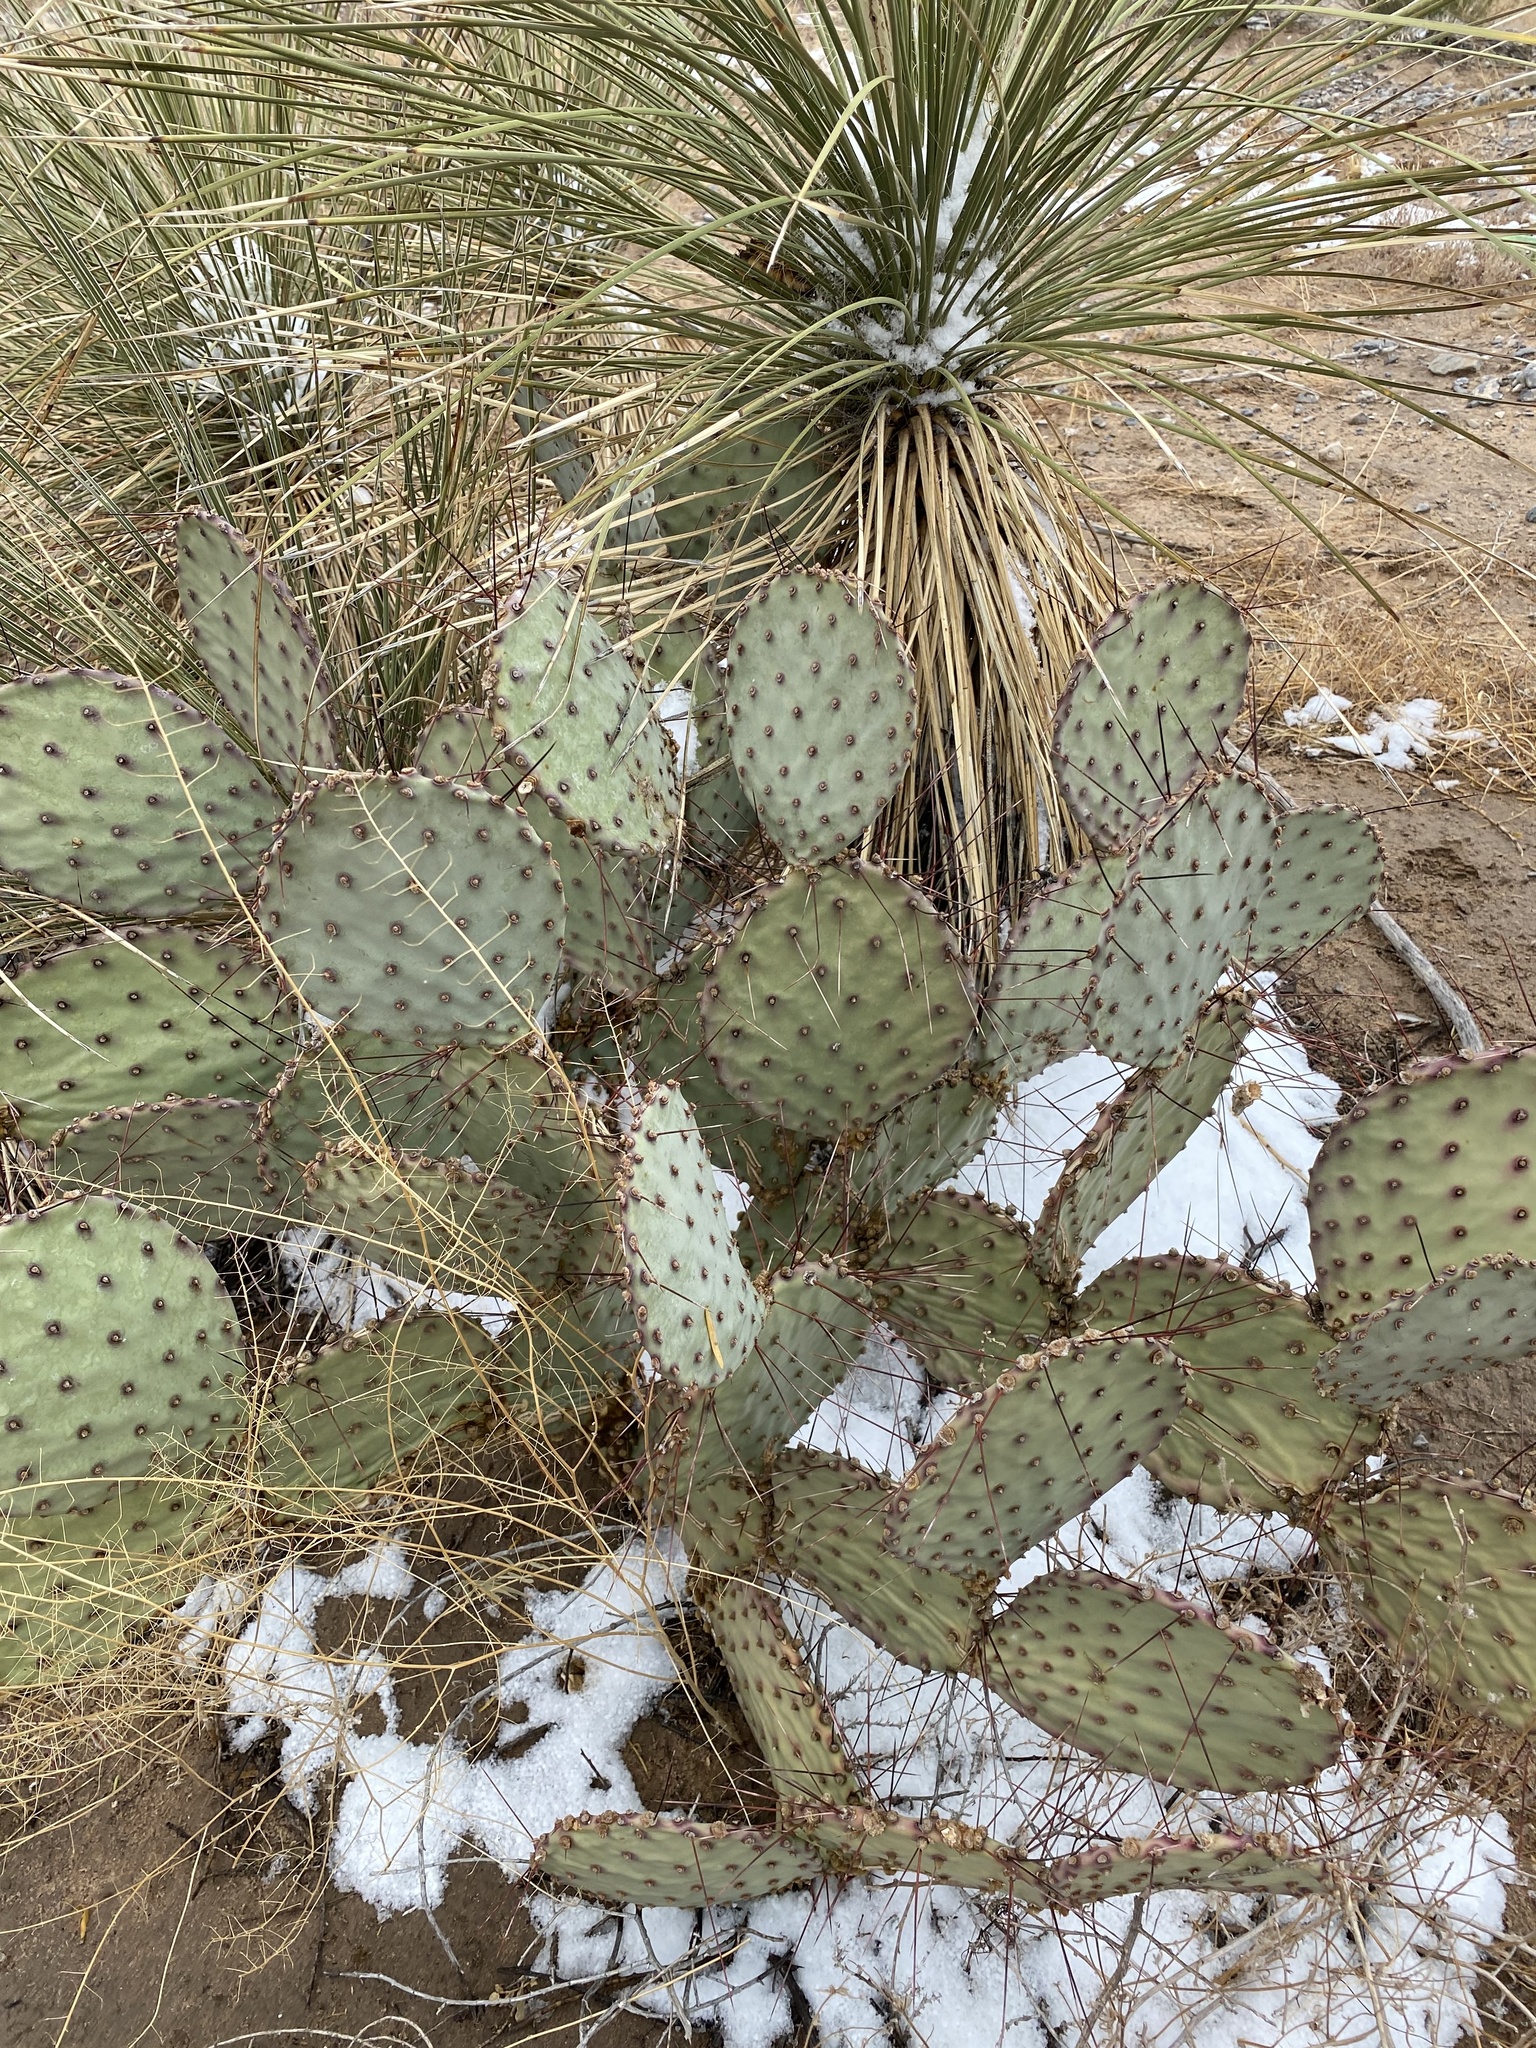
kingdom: Plantae
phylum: Tracheophyta
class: Magnoliopsida
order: Caryophyllales
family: Cactaceae
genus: Opuntia
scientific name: Opuntia macrocentra
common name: Purple prickly-pear
